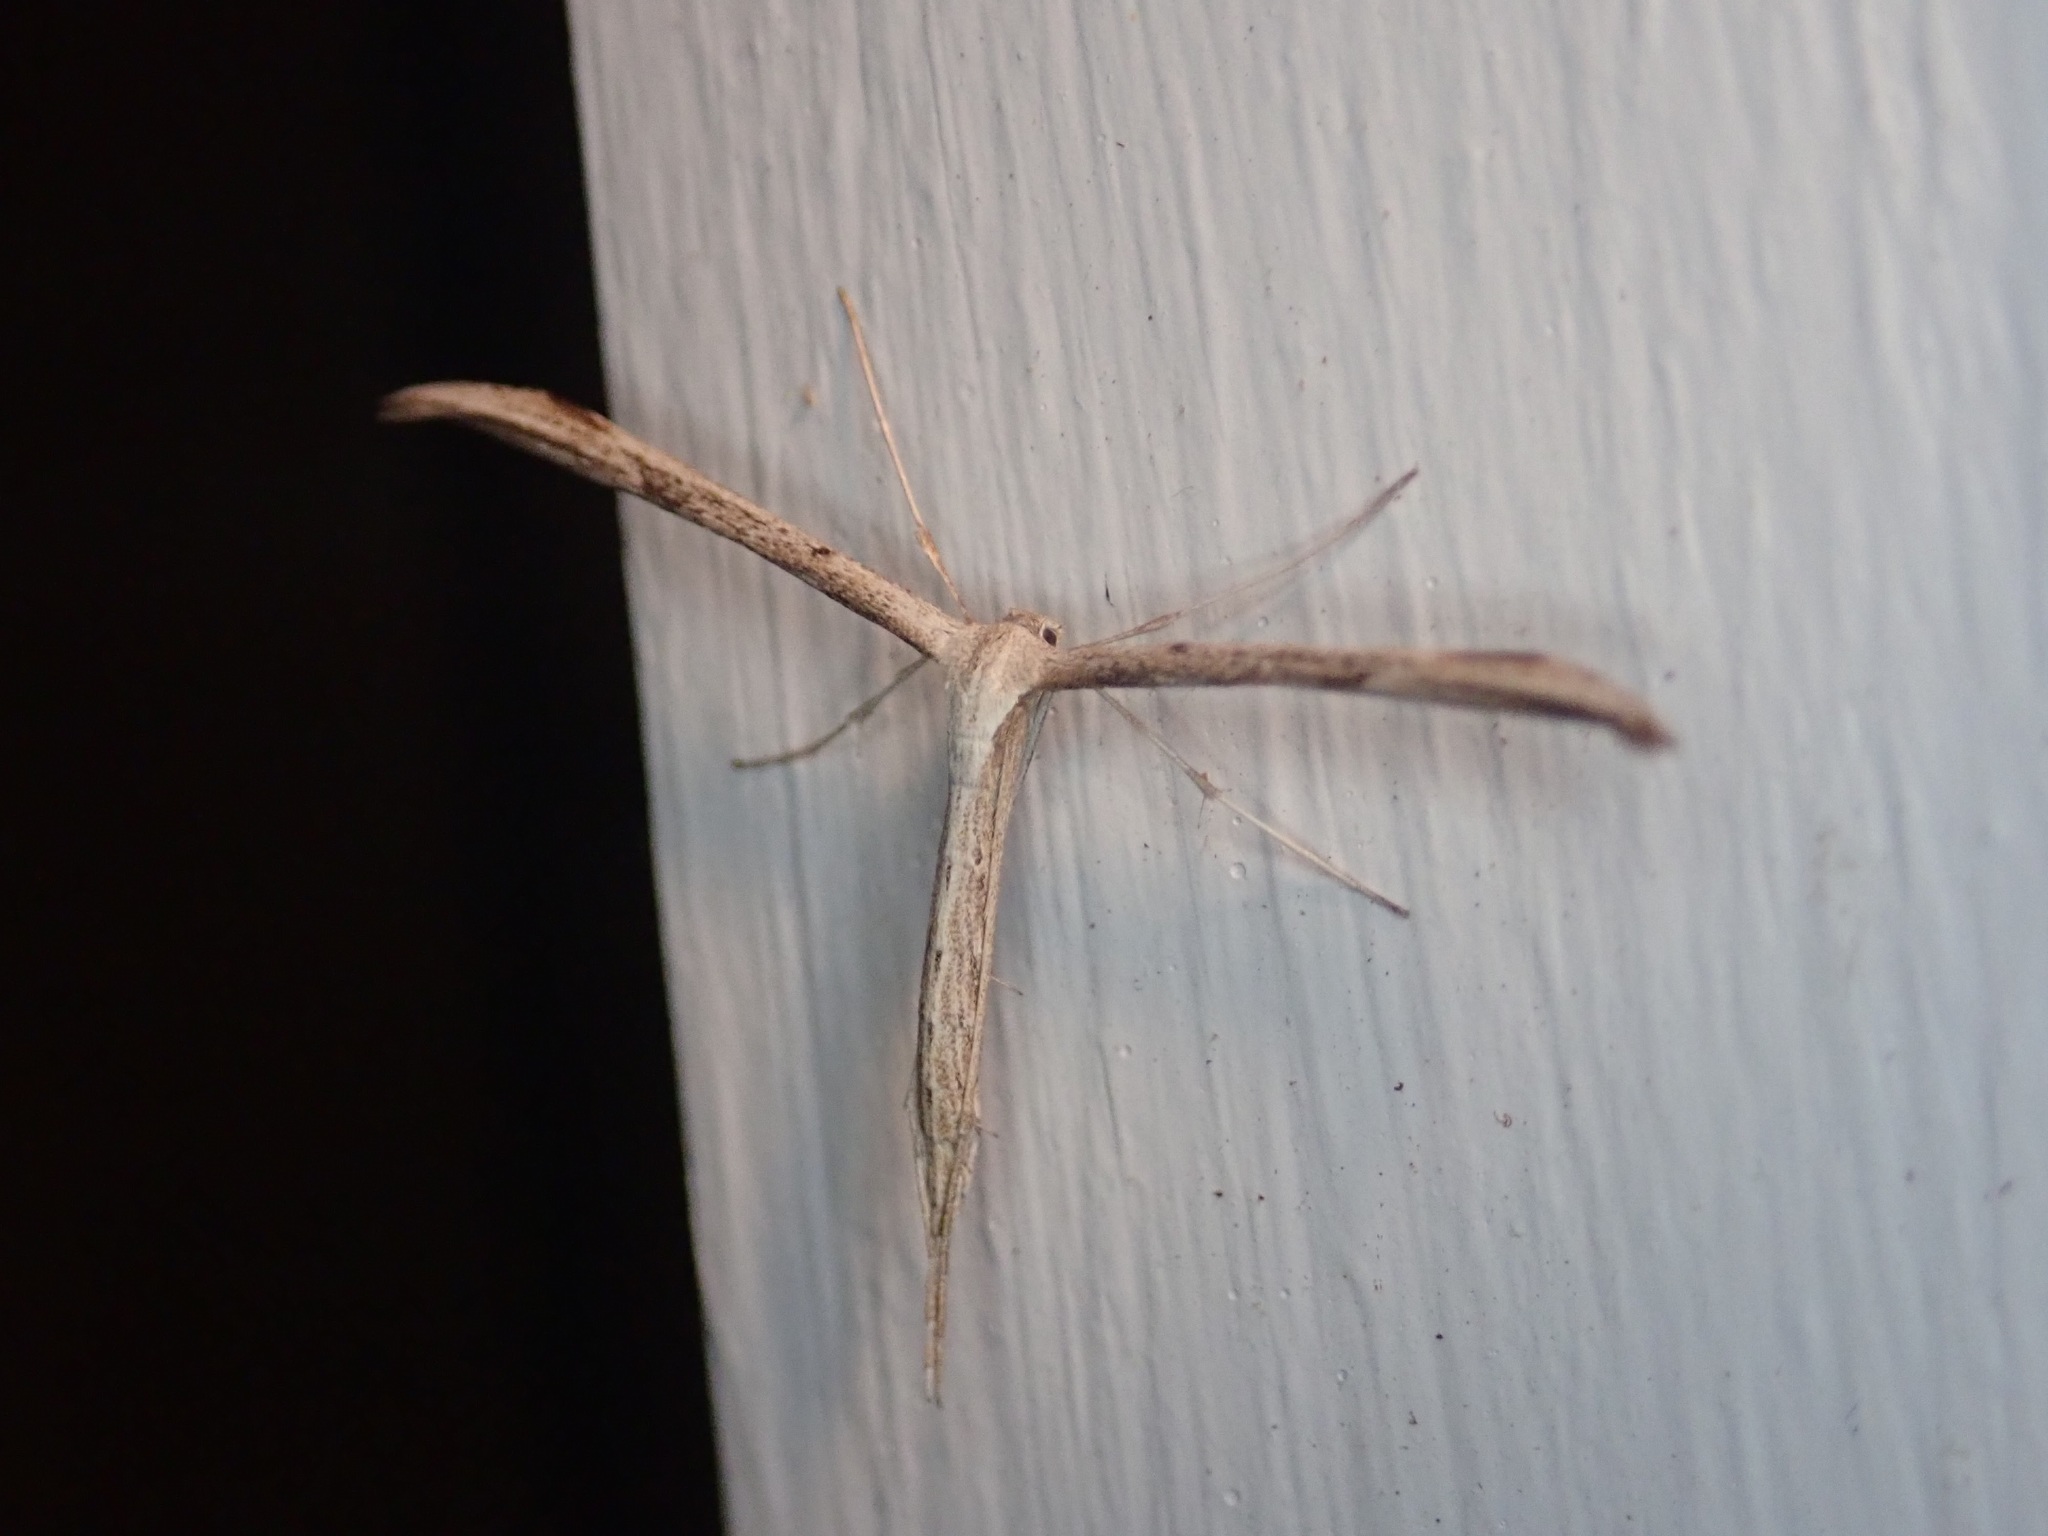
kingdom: Animalia
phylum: Arthropoda
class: Insecta
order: Lepidoptera
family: Pterophoridae
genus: Emmelina
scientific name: Emmelina monodactyla
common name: Common plume
